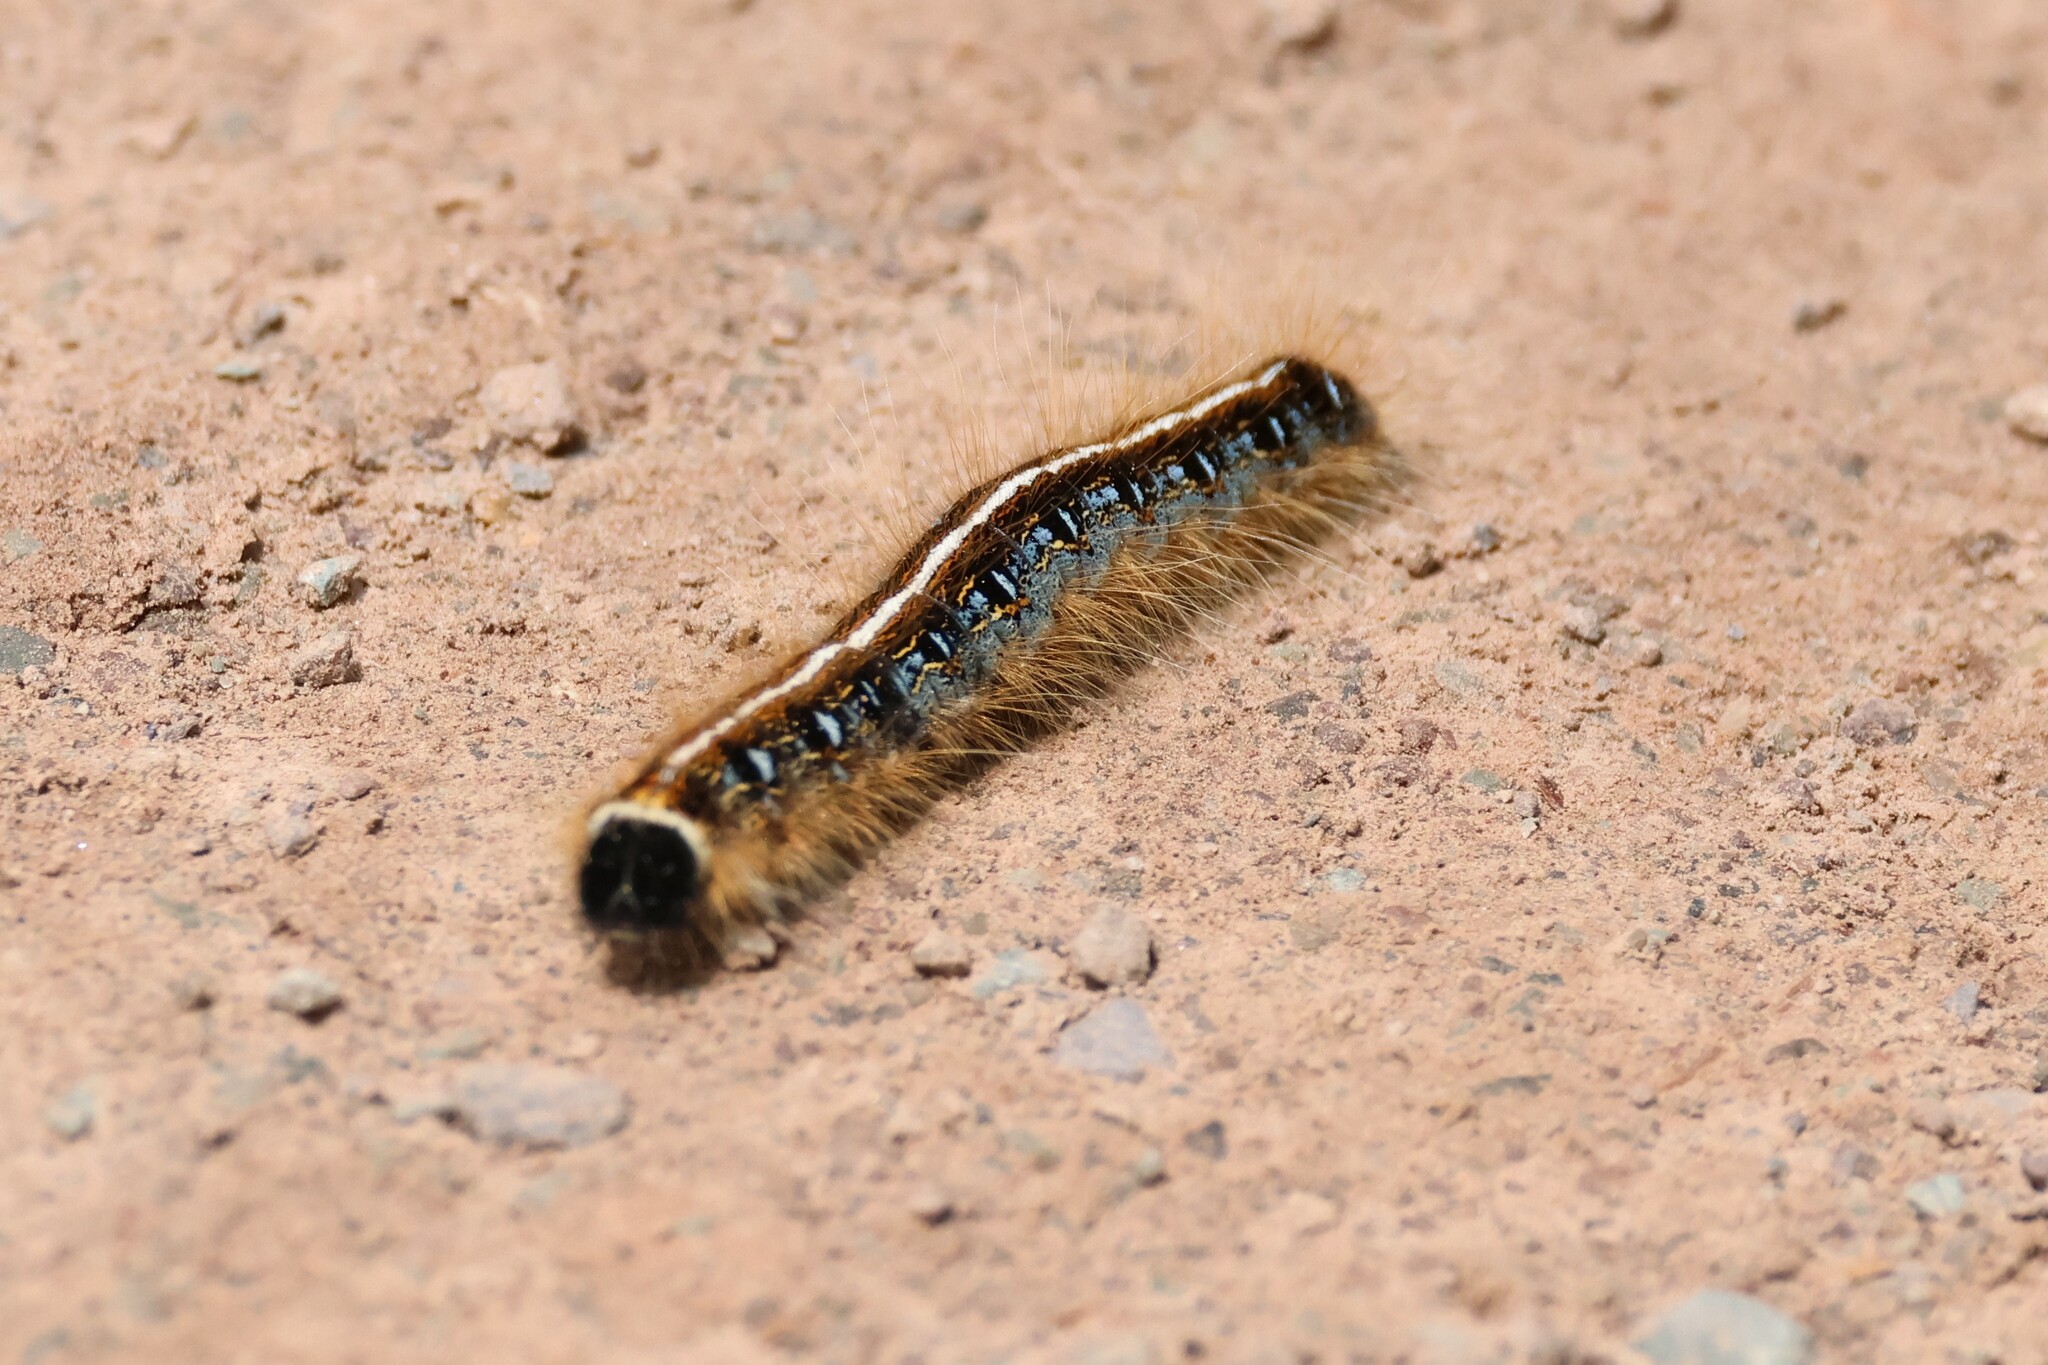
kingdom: Animalia
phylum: Arthropoda
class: Insecta
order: Lepidoptera
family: Lasiocampidae
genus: Malacosoma
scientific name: Malacosoma americana
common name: Eastern tent caterpillar moth
